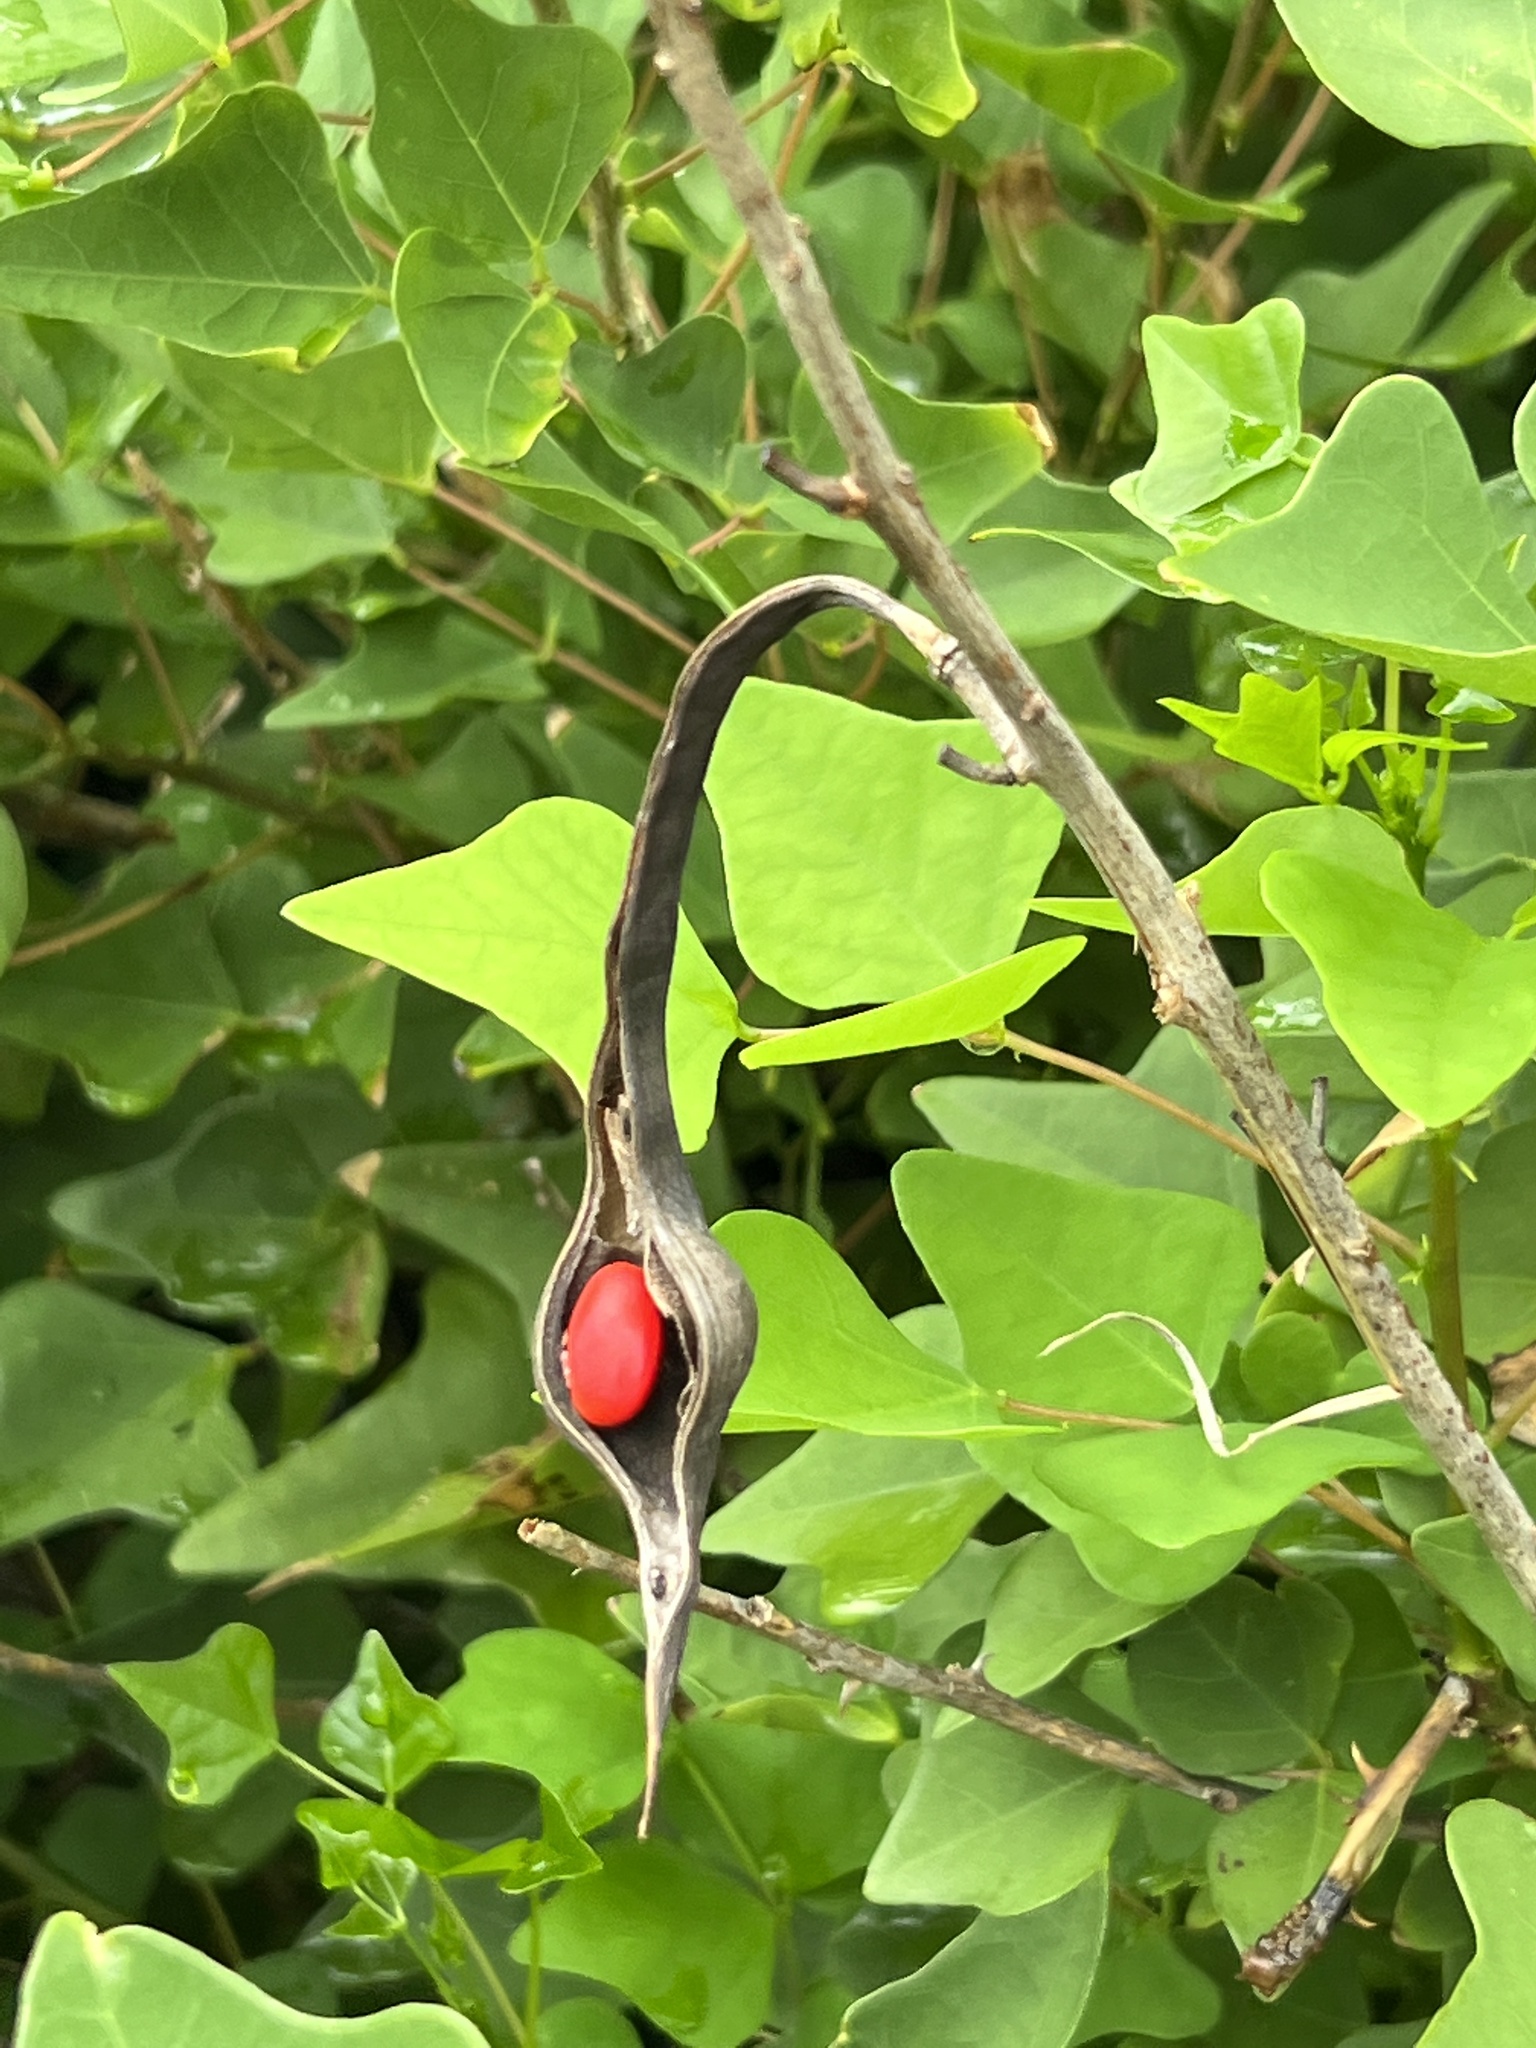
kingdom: Plantae
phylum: Tracheophyta
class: Magnoliopsida
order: Fabales
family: Fabaceae
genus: Erythrina
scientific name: Erythrina herbacea
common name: Coral-bean
